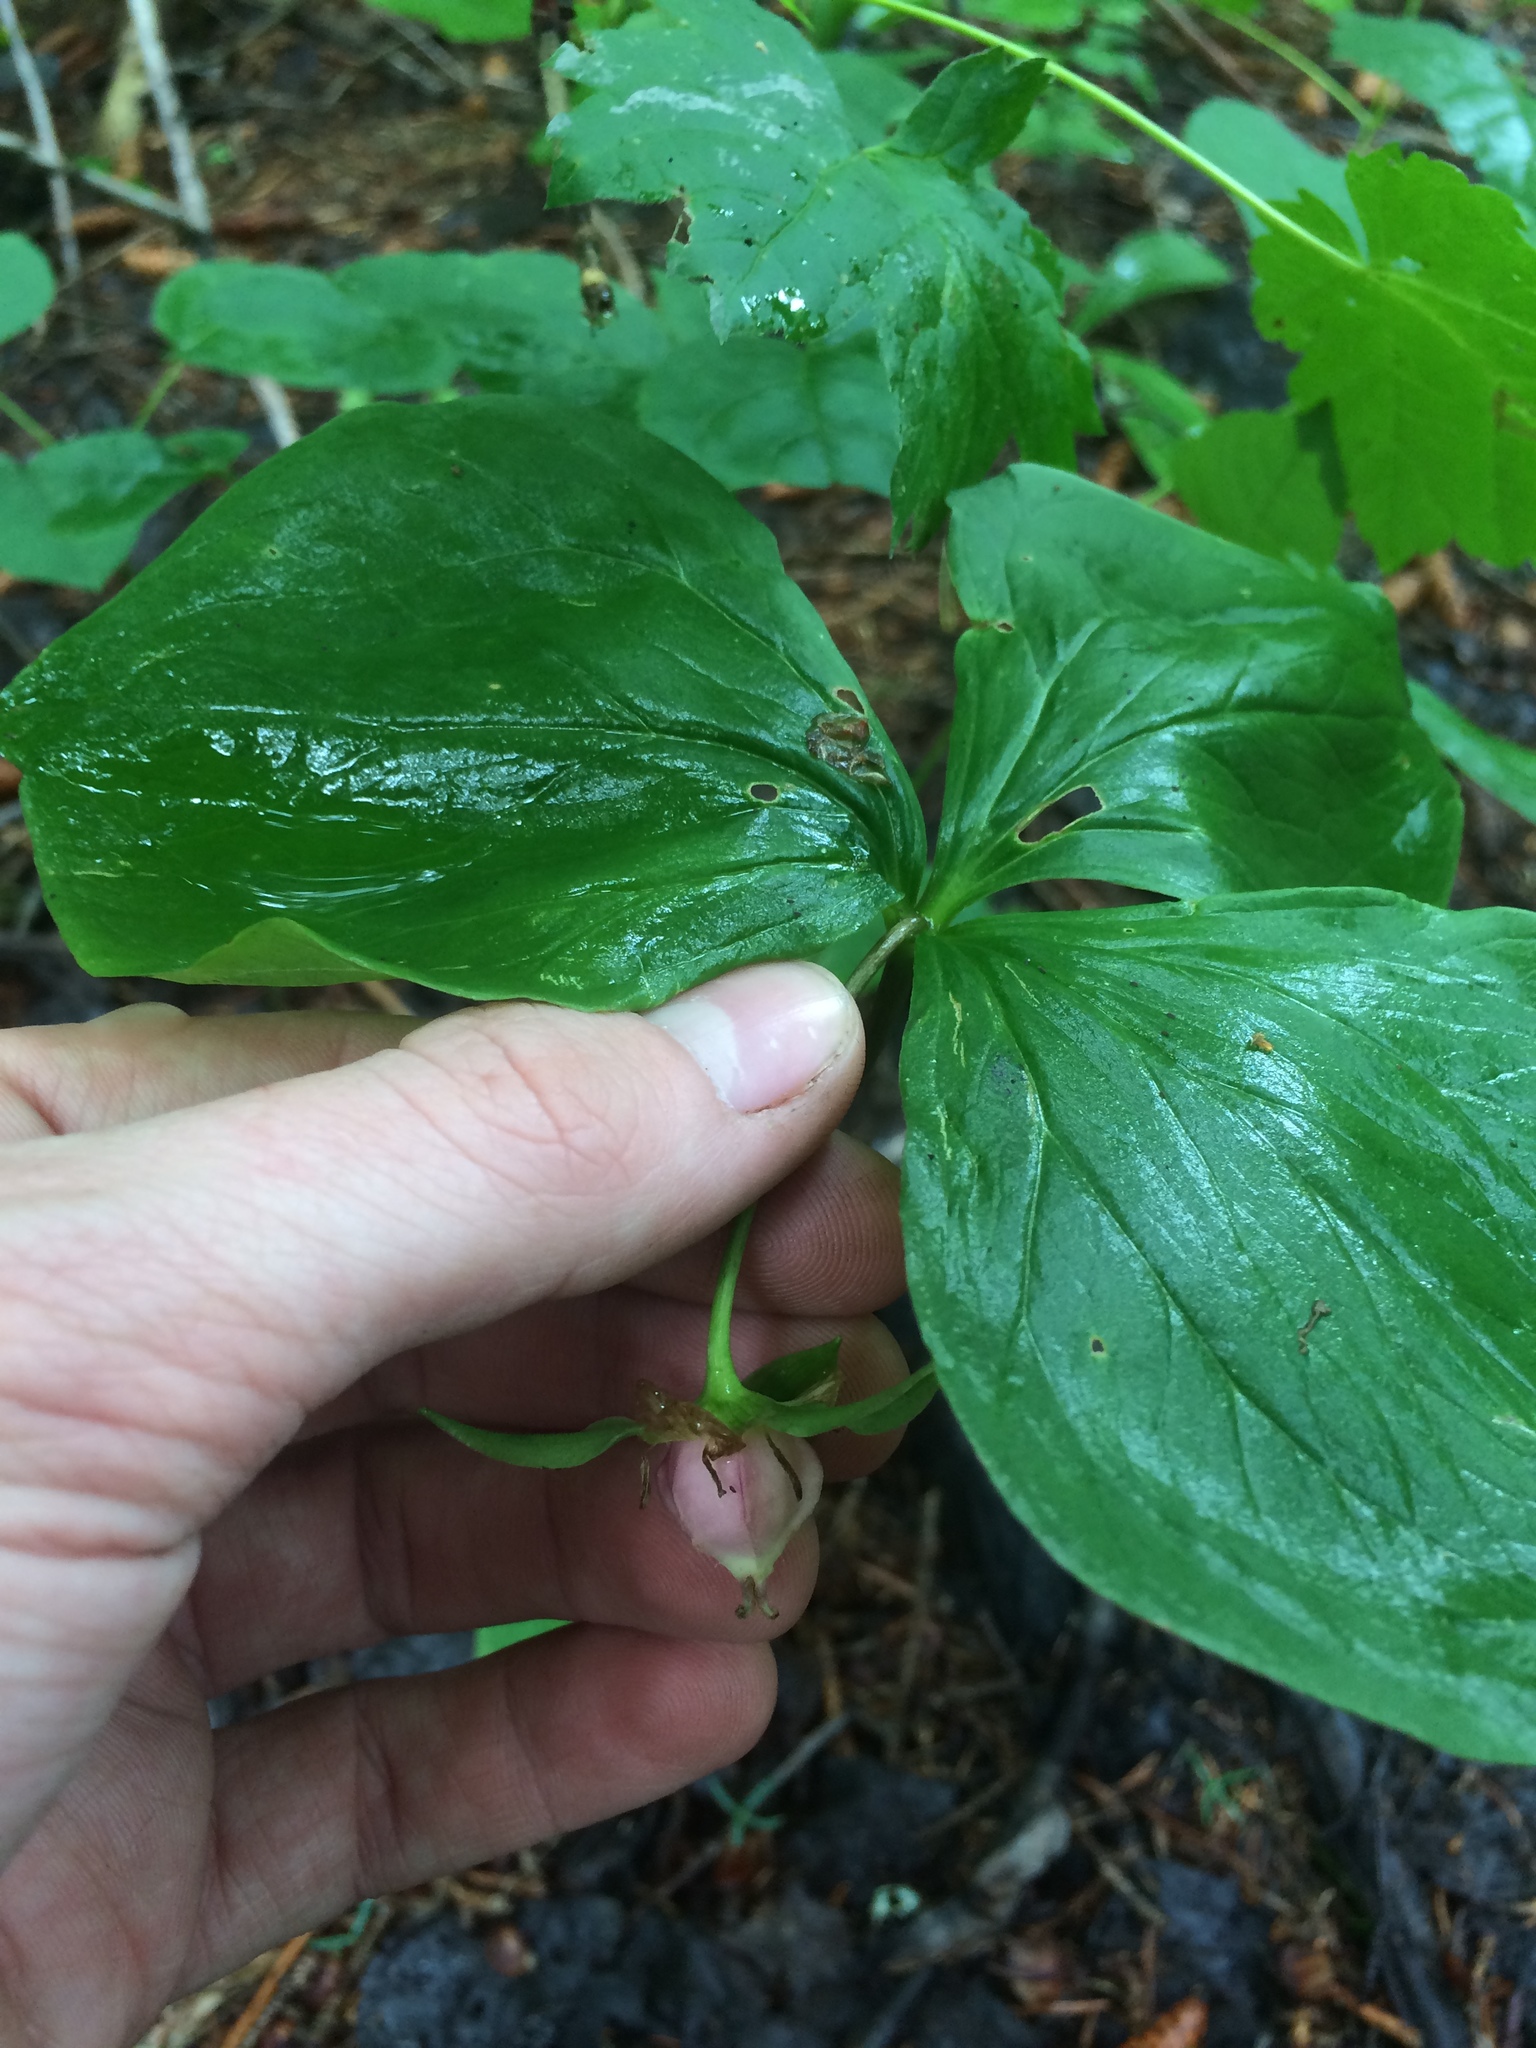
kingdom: Plantae
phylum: Tracheophyta
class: Liliopsida
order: Liliales
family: Melanthiaceae
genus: Trillium
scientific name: Trillium cernuum
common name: Nodding trillium
